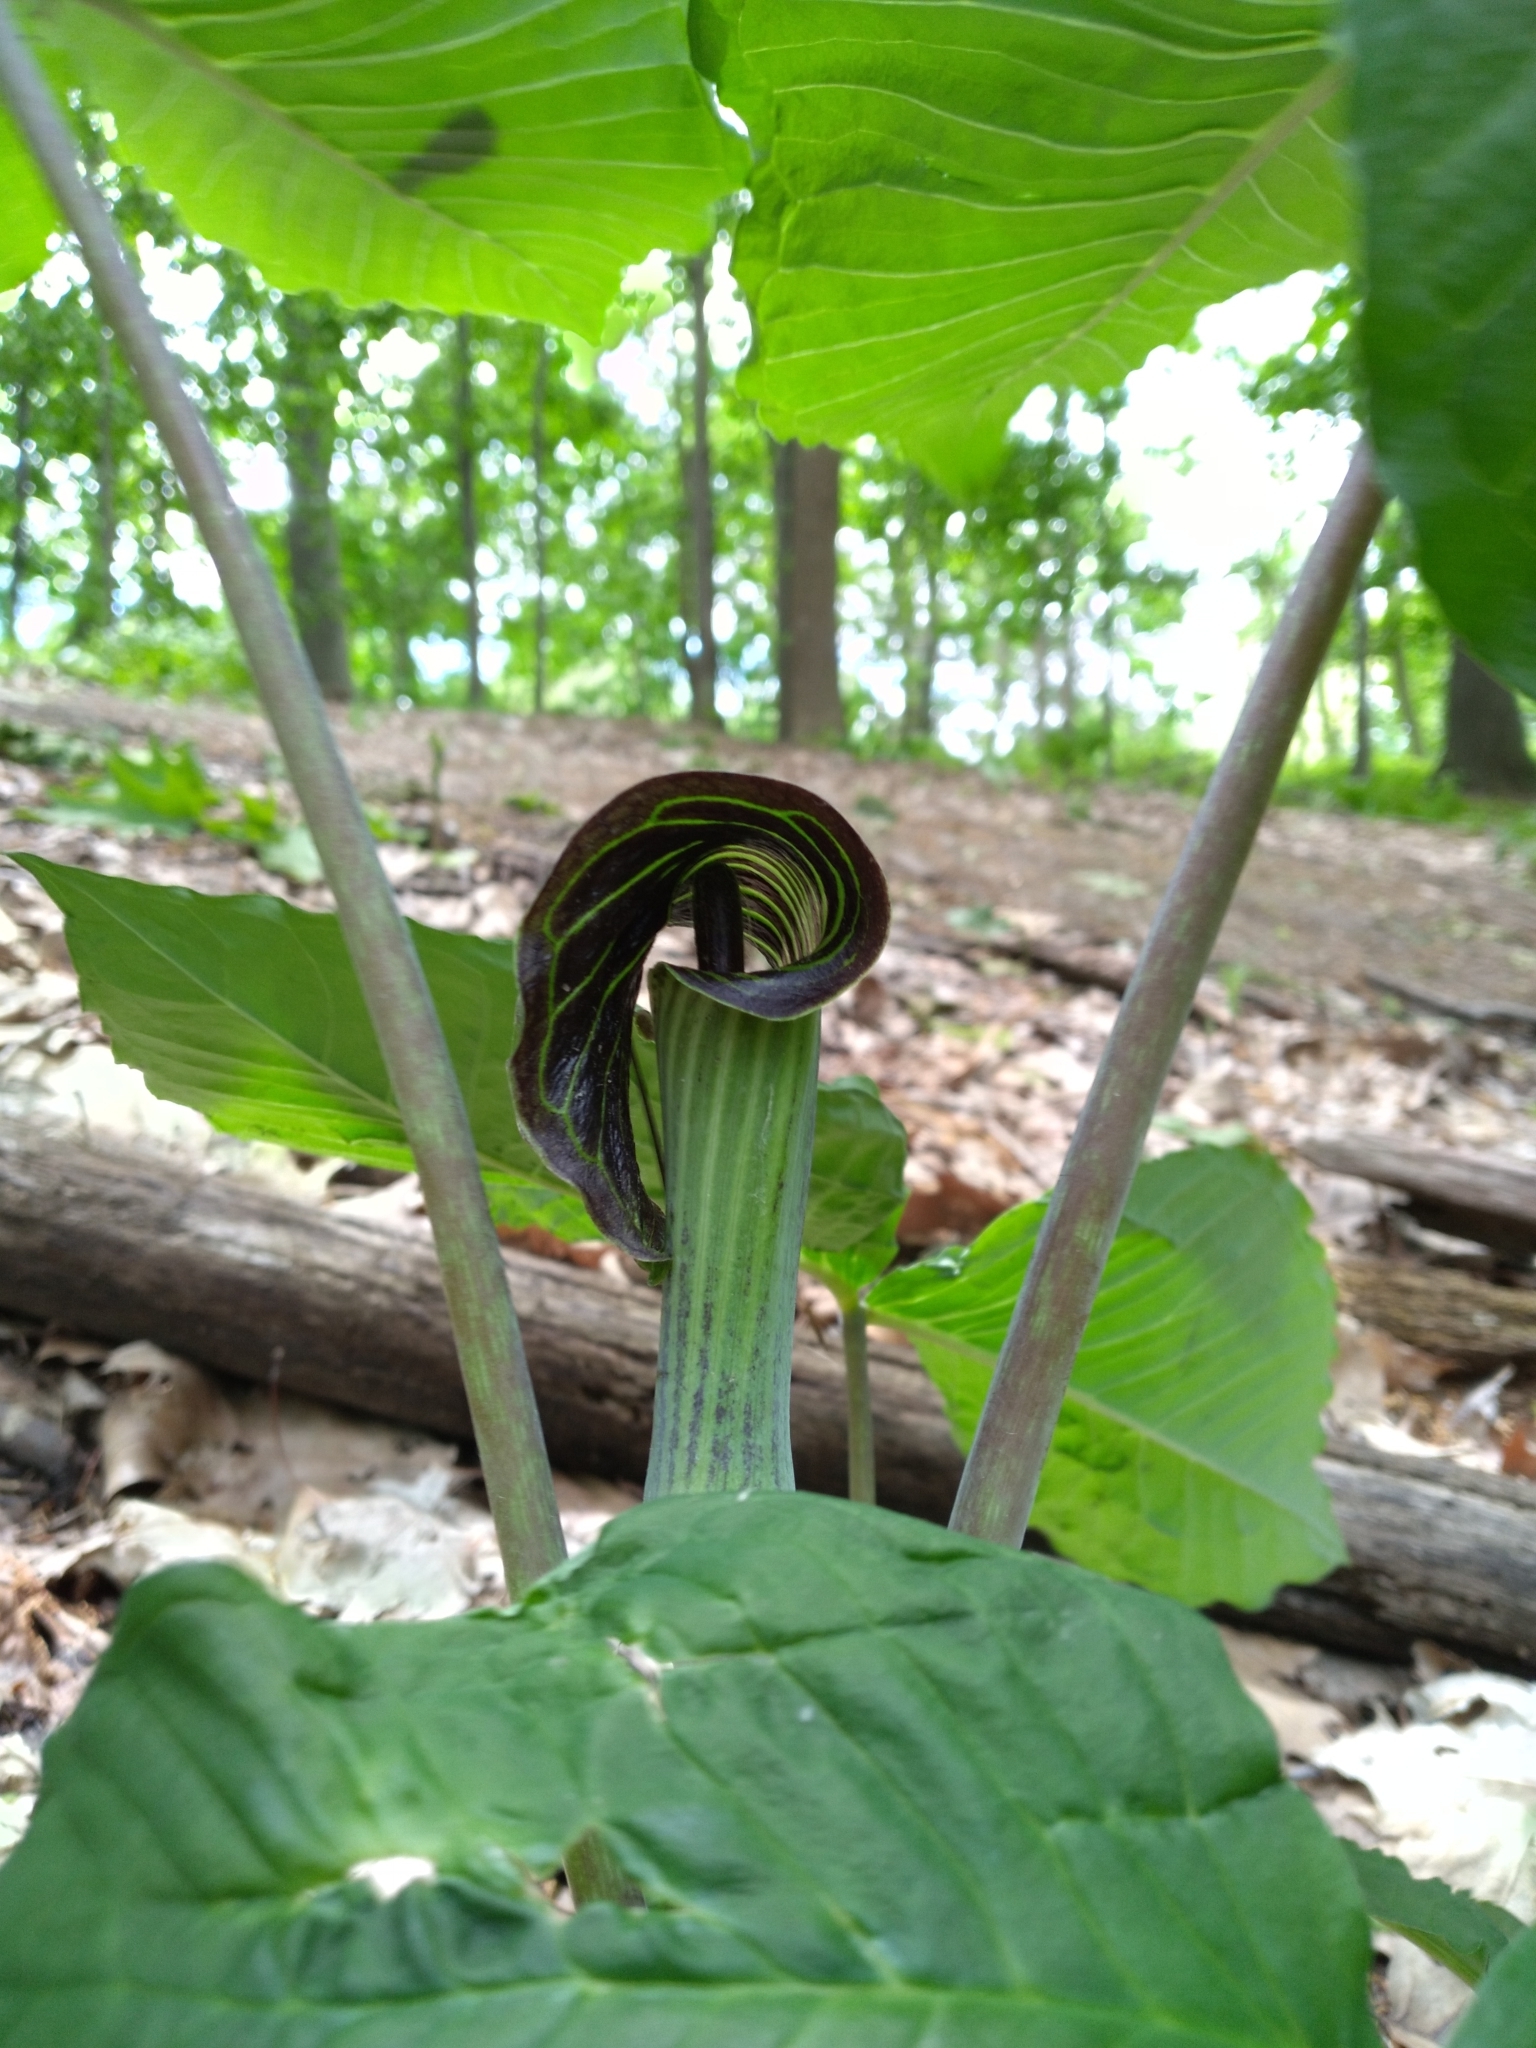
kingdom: Plantae
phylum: Tracheophyta
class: Liliopsida
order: Alismatales
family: Araceae
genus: Arisaema
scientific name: Arisaema triphyllum
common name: Jack-in-the-pulpit
